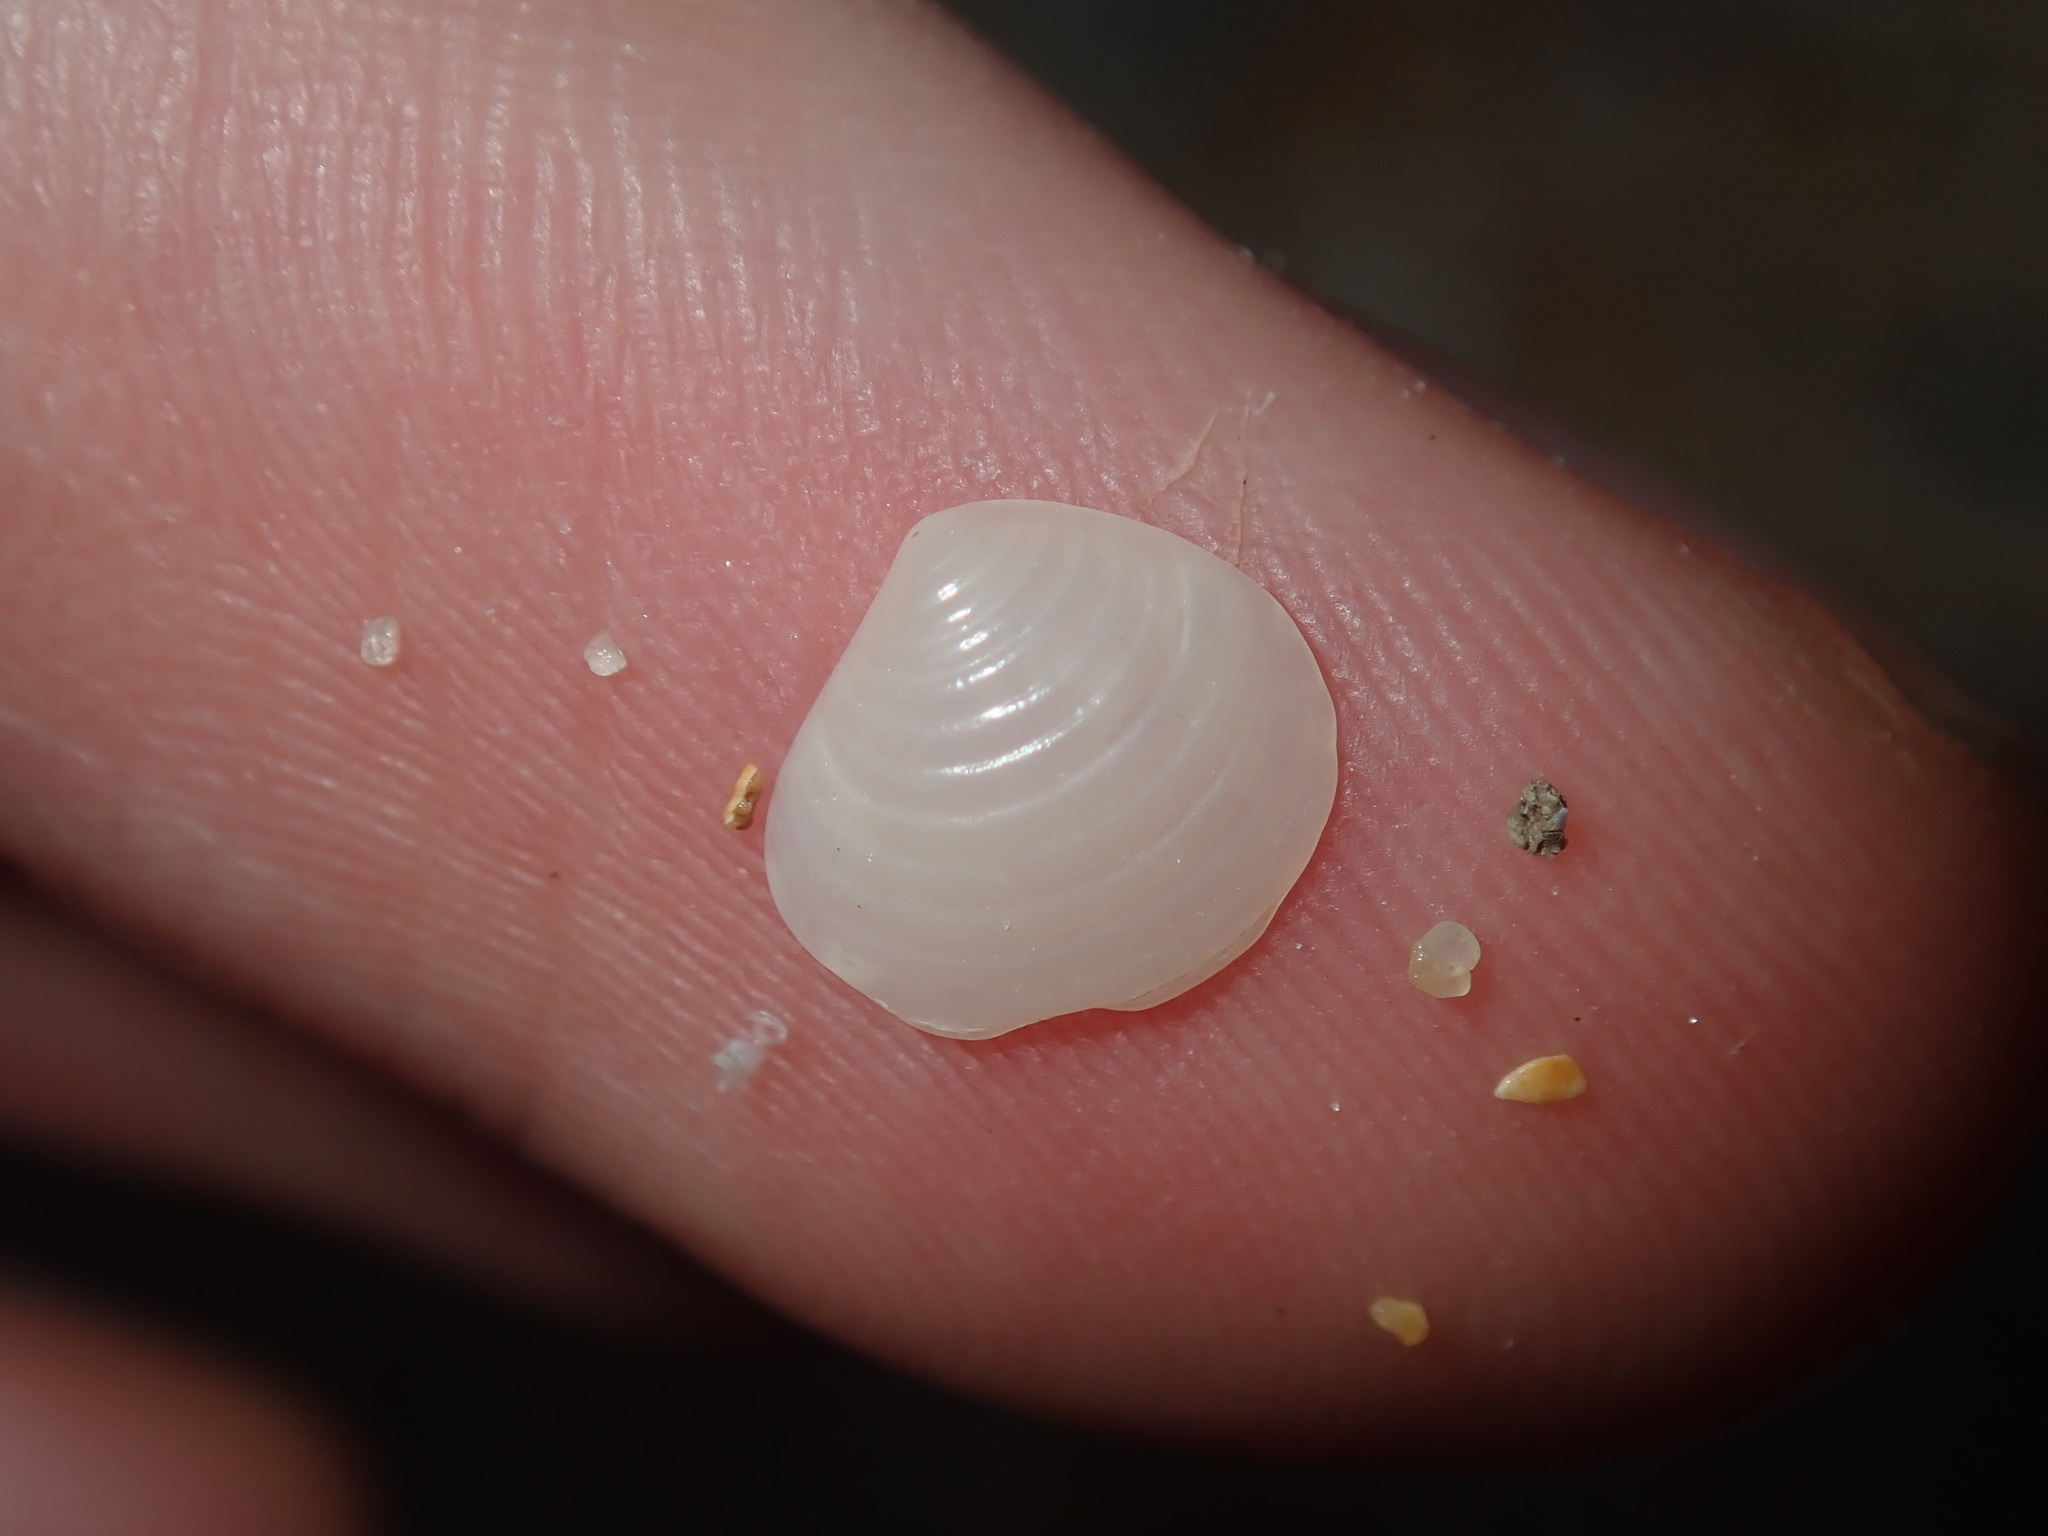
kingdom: Animalia
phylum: Mollusca
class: Bivalvia
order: Carditida
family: Crassatellidae
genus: Salaputium
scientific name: Salaputium fulvidum
